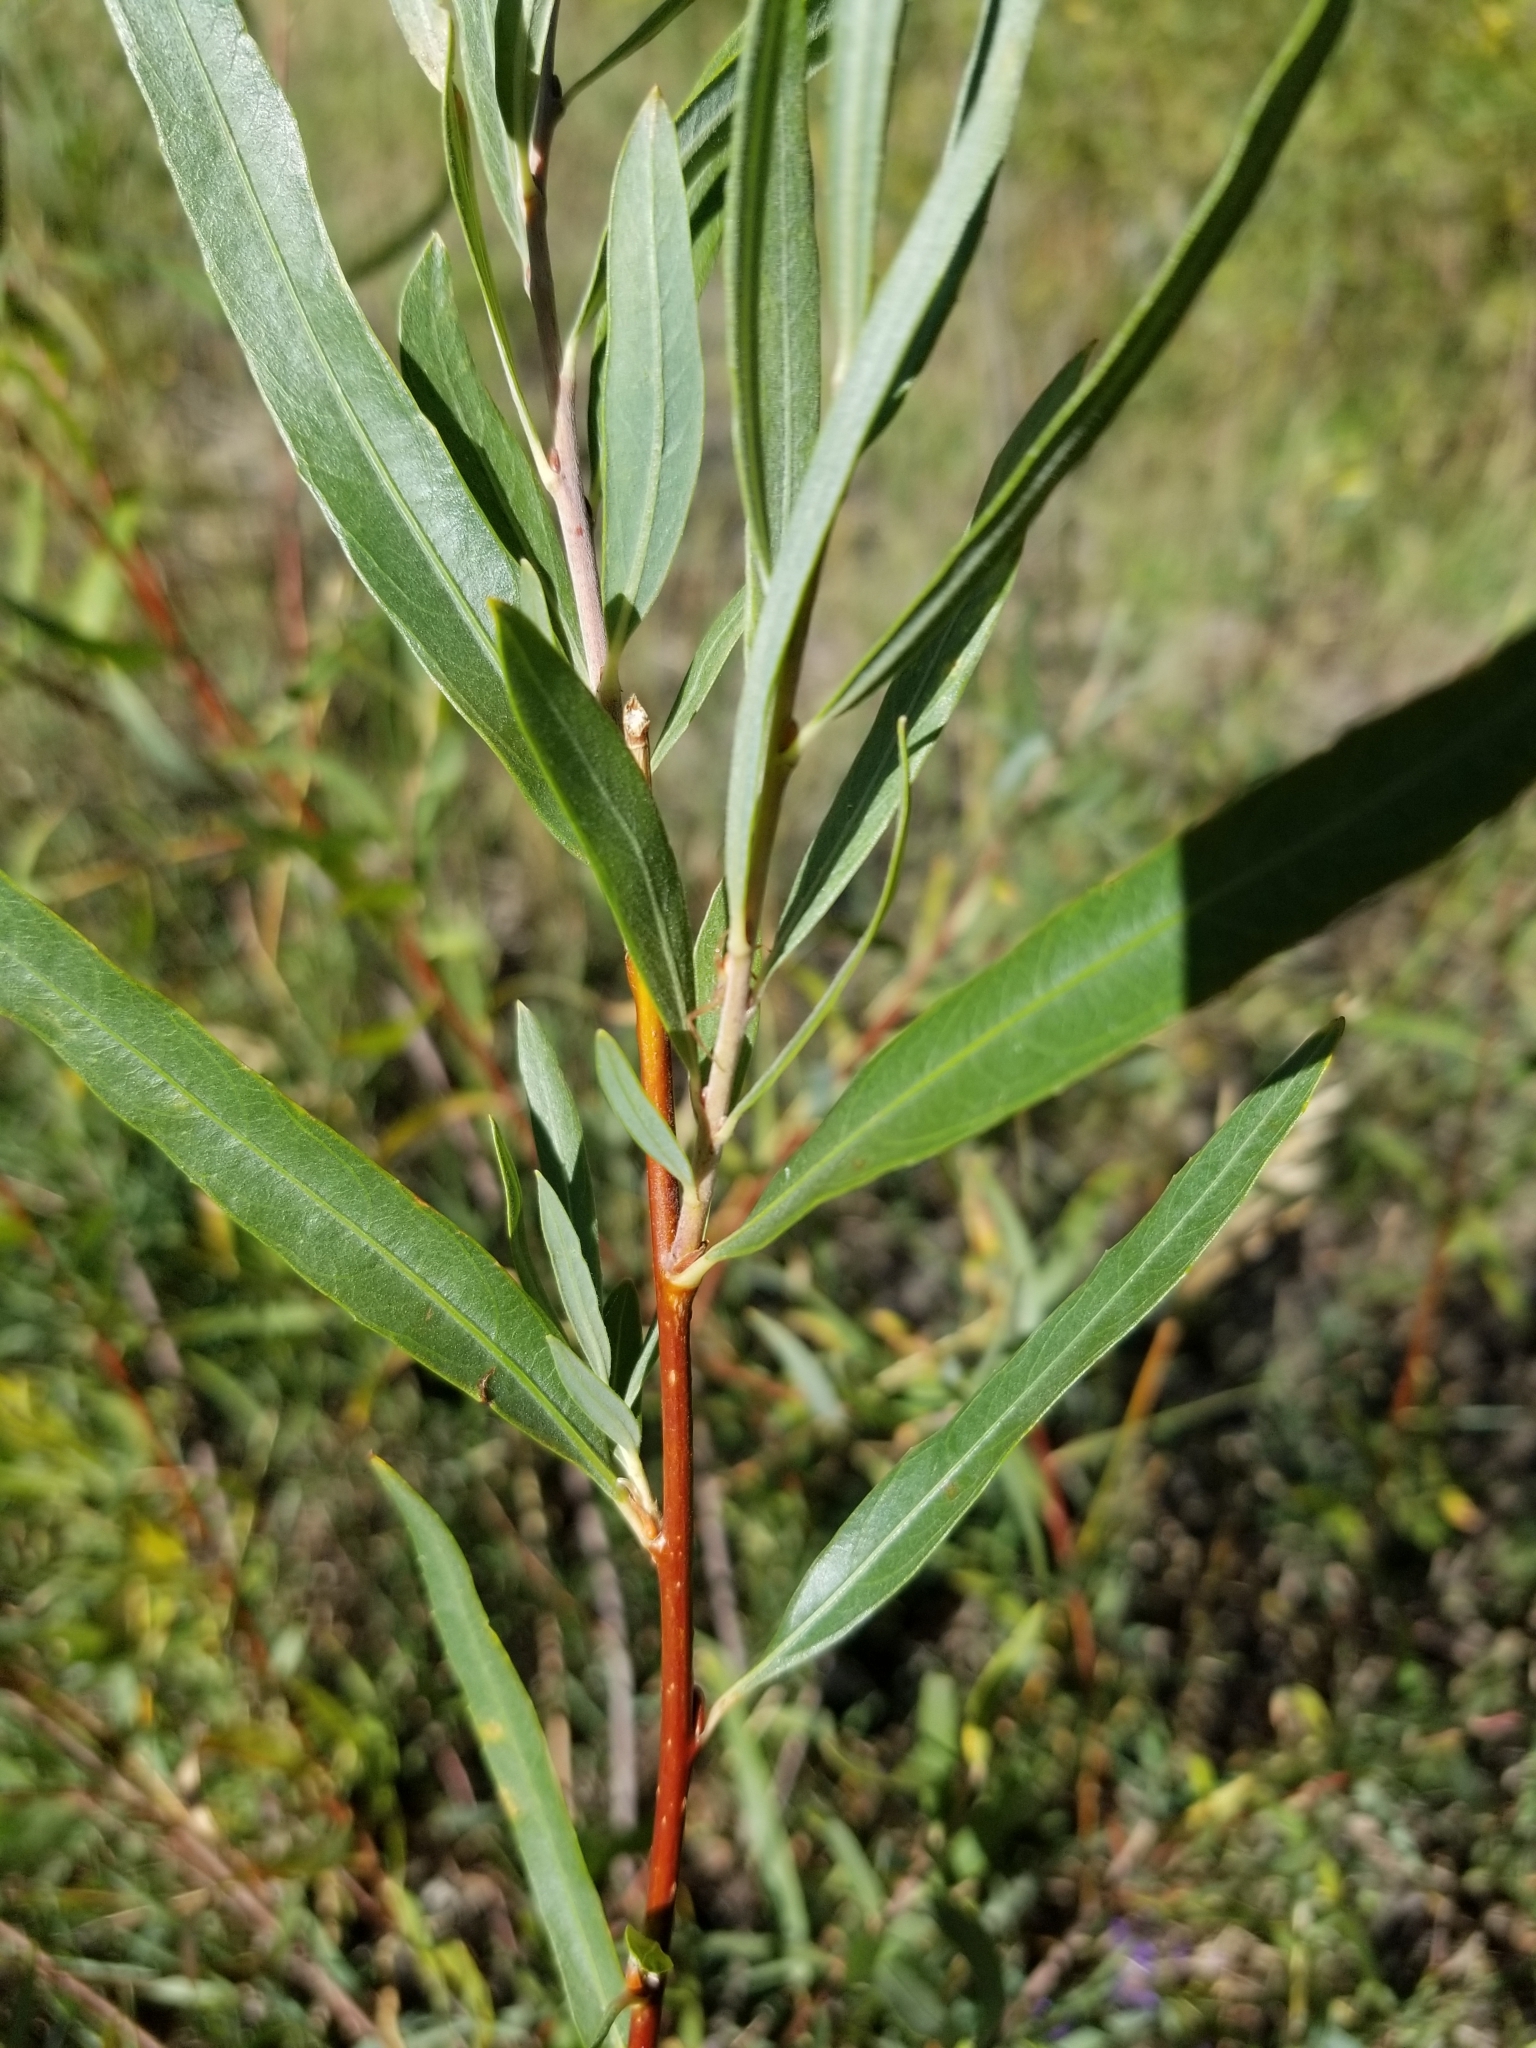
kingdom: Plantae
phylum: Tracheophyta
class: Magnoliopsida
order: Malpighiales
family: Salicaceae
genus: Salix
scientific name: Salix exigua
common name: Coyote willow
